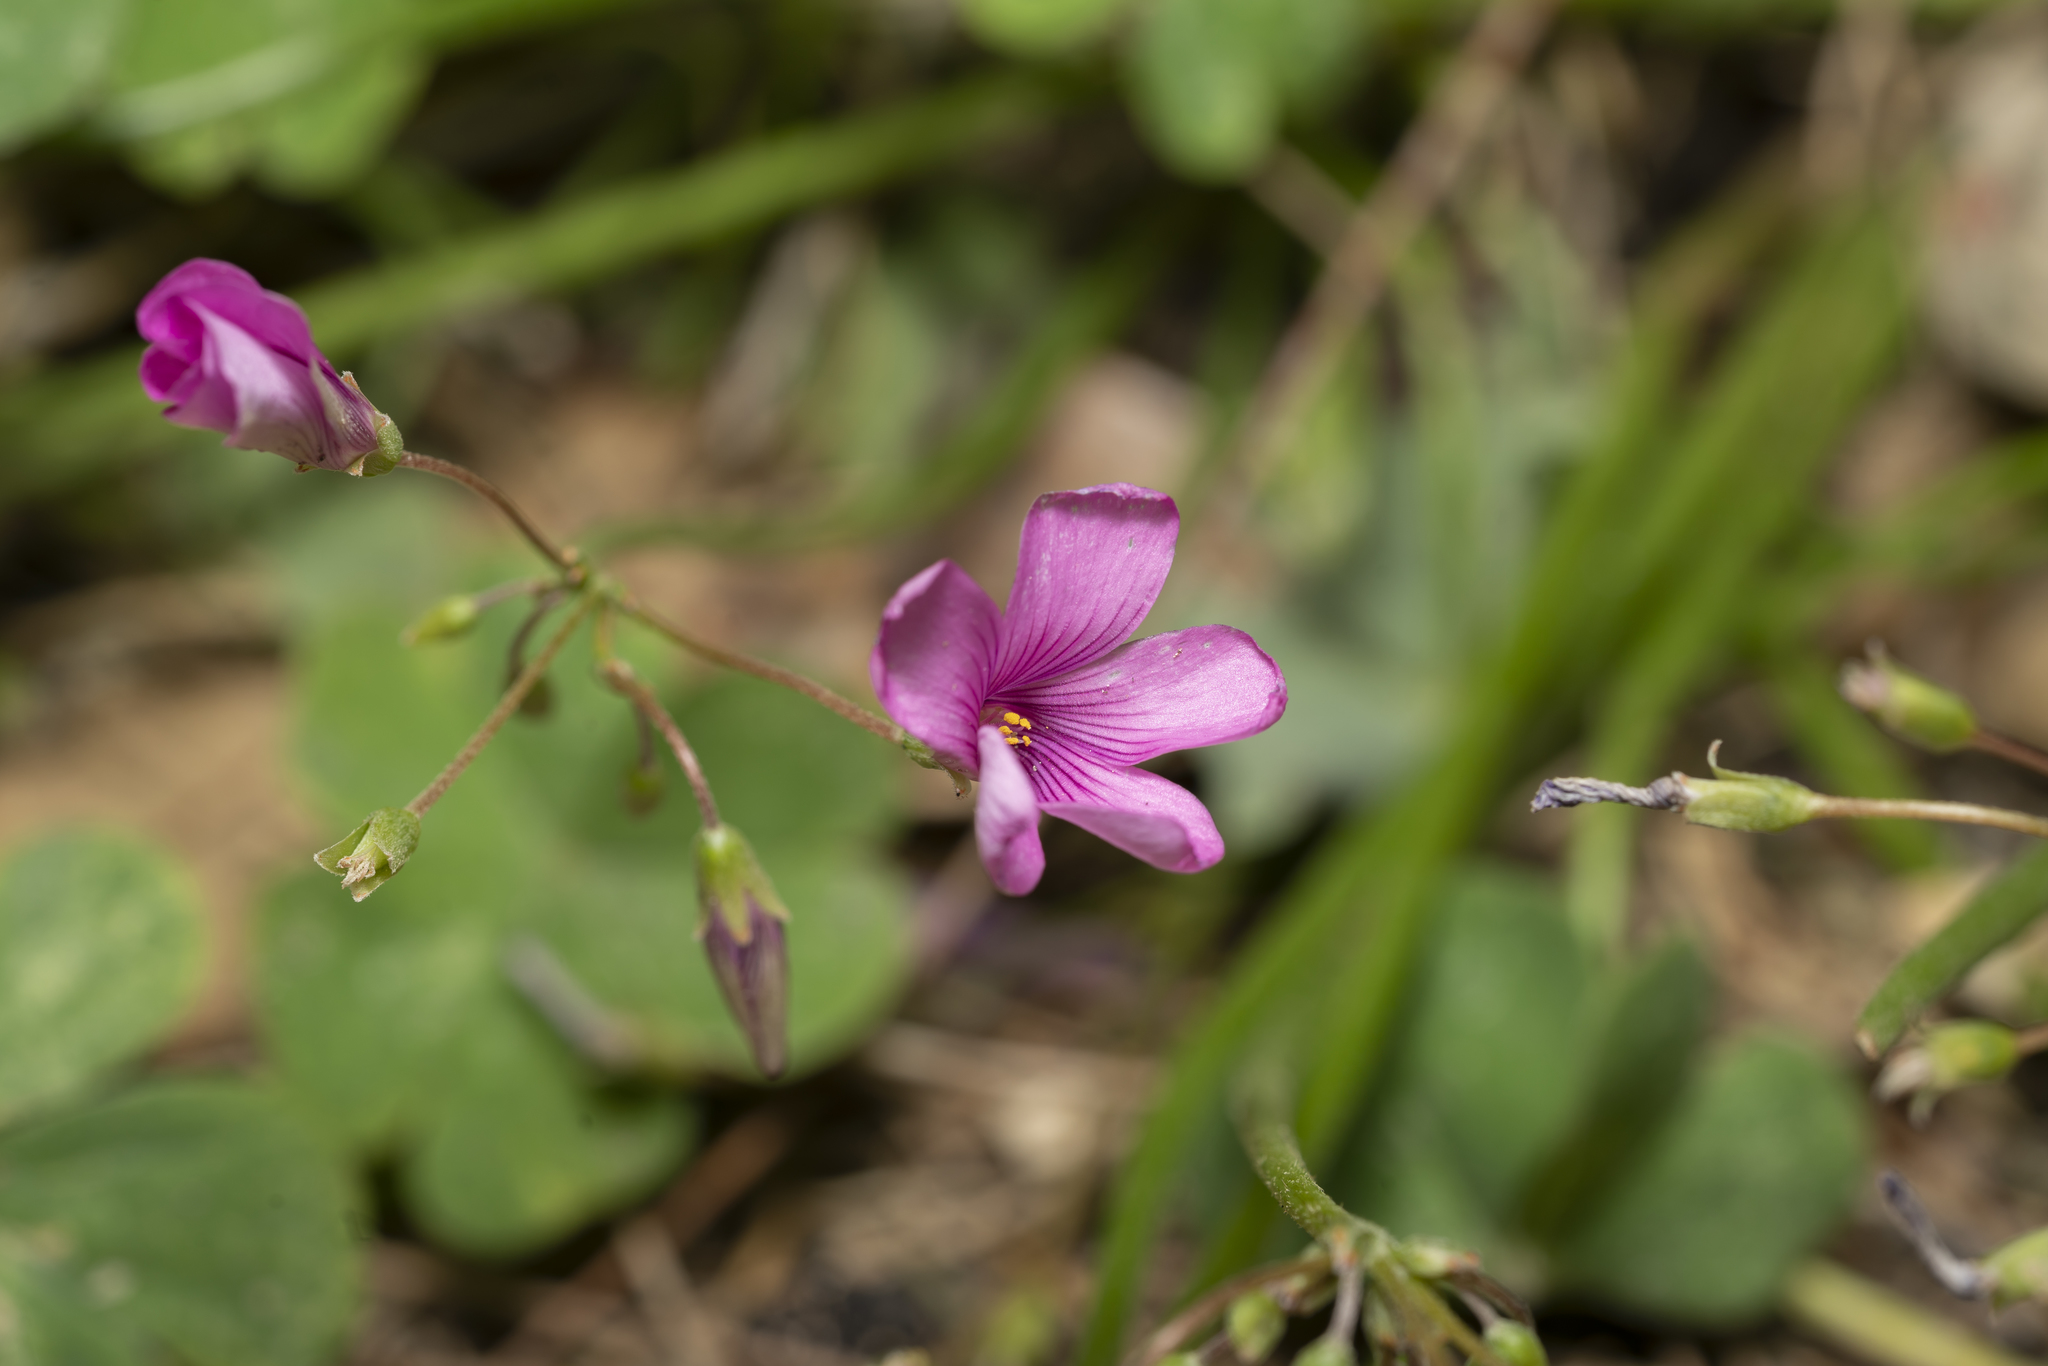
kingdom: Plantae
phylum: Tracheophyta
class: Magnoliopsida
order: Oxalidales
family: Oxalidaceae
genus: Oxalis
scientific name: Oxalis articulata
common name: Pink-sorrel
